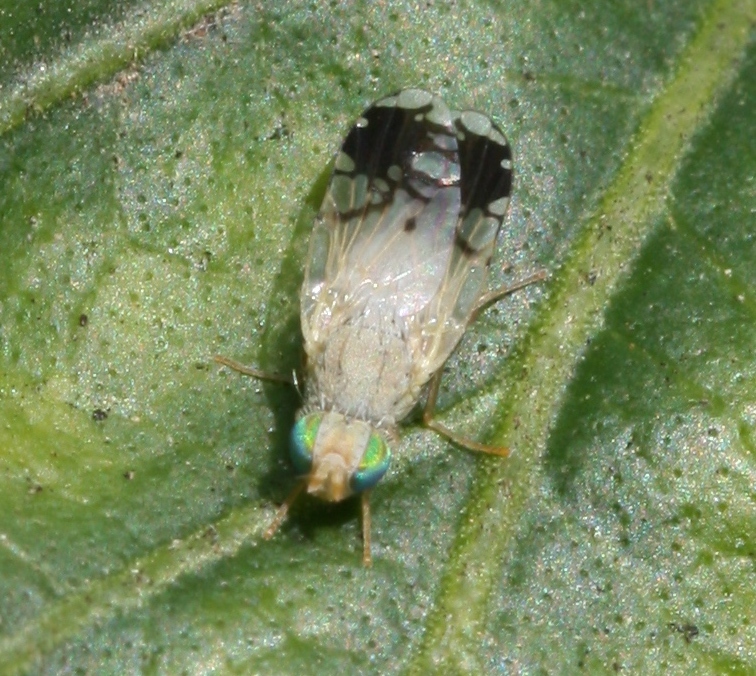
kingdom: Animalia
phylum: Arthropoda
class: Insecta
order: Diptera
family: Tephritidae
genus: Trupanea
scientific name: Trupanea amoena
